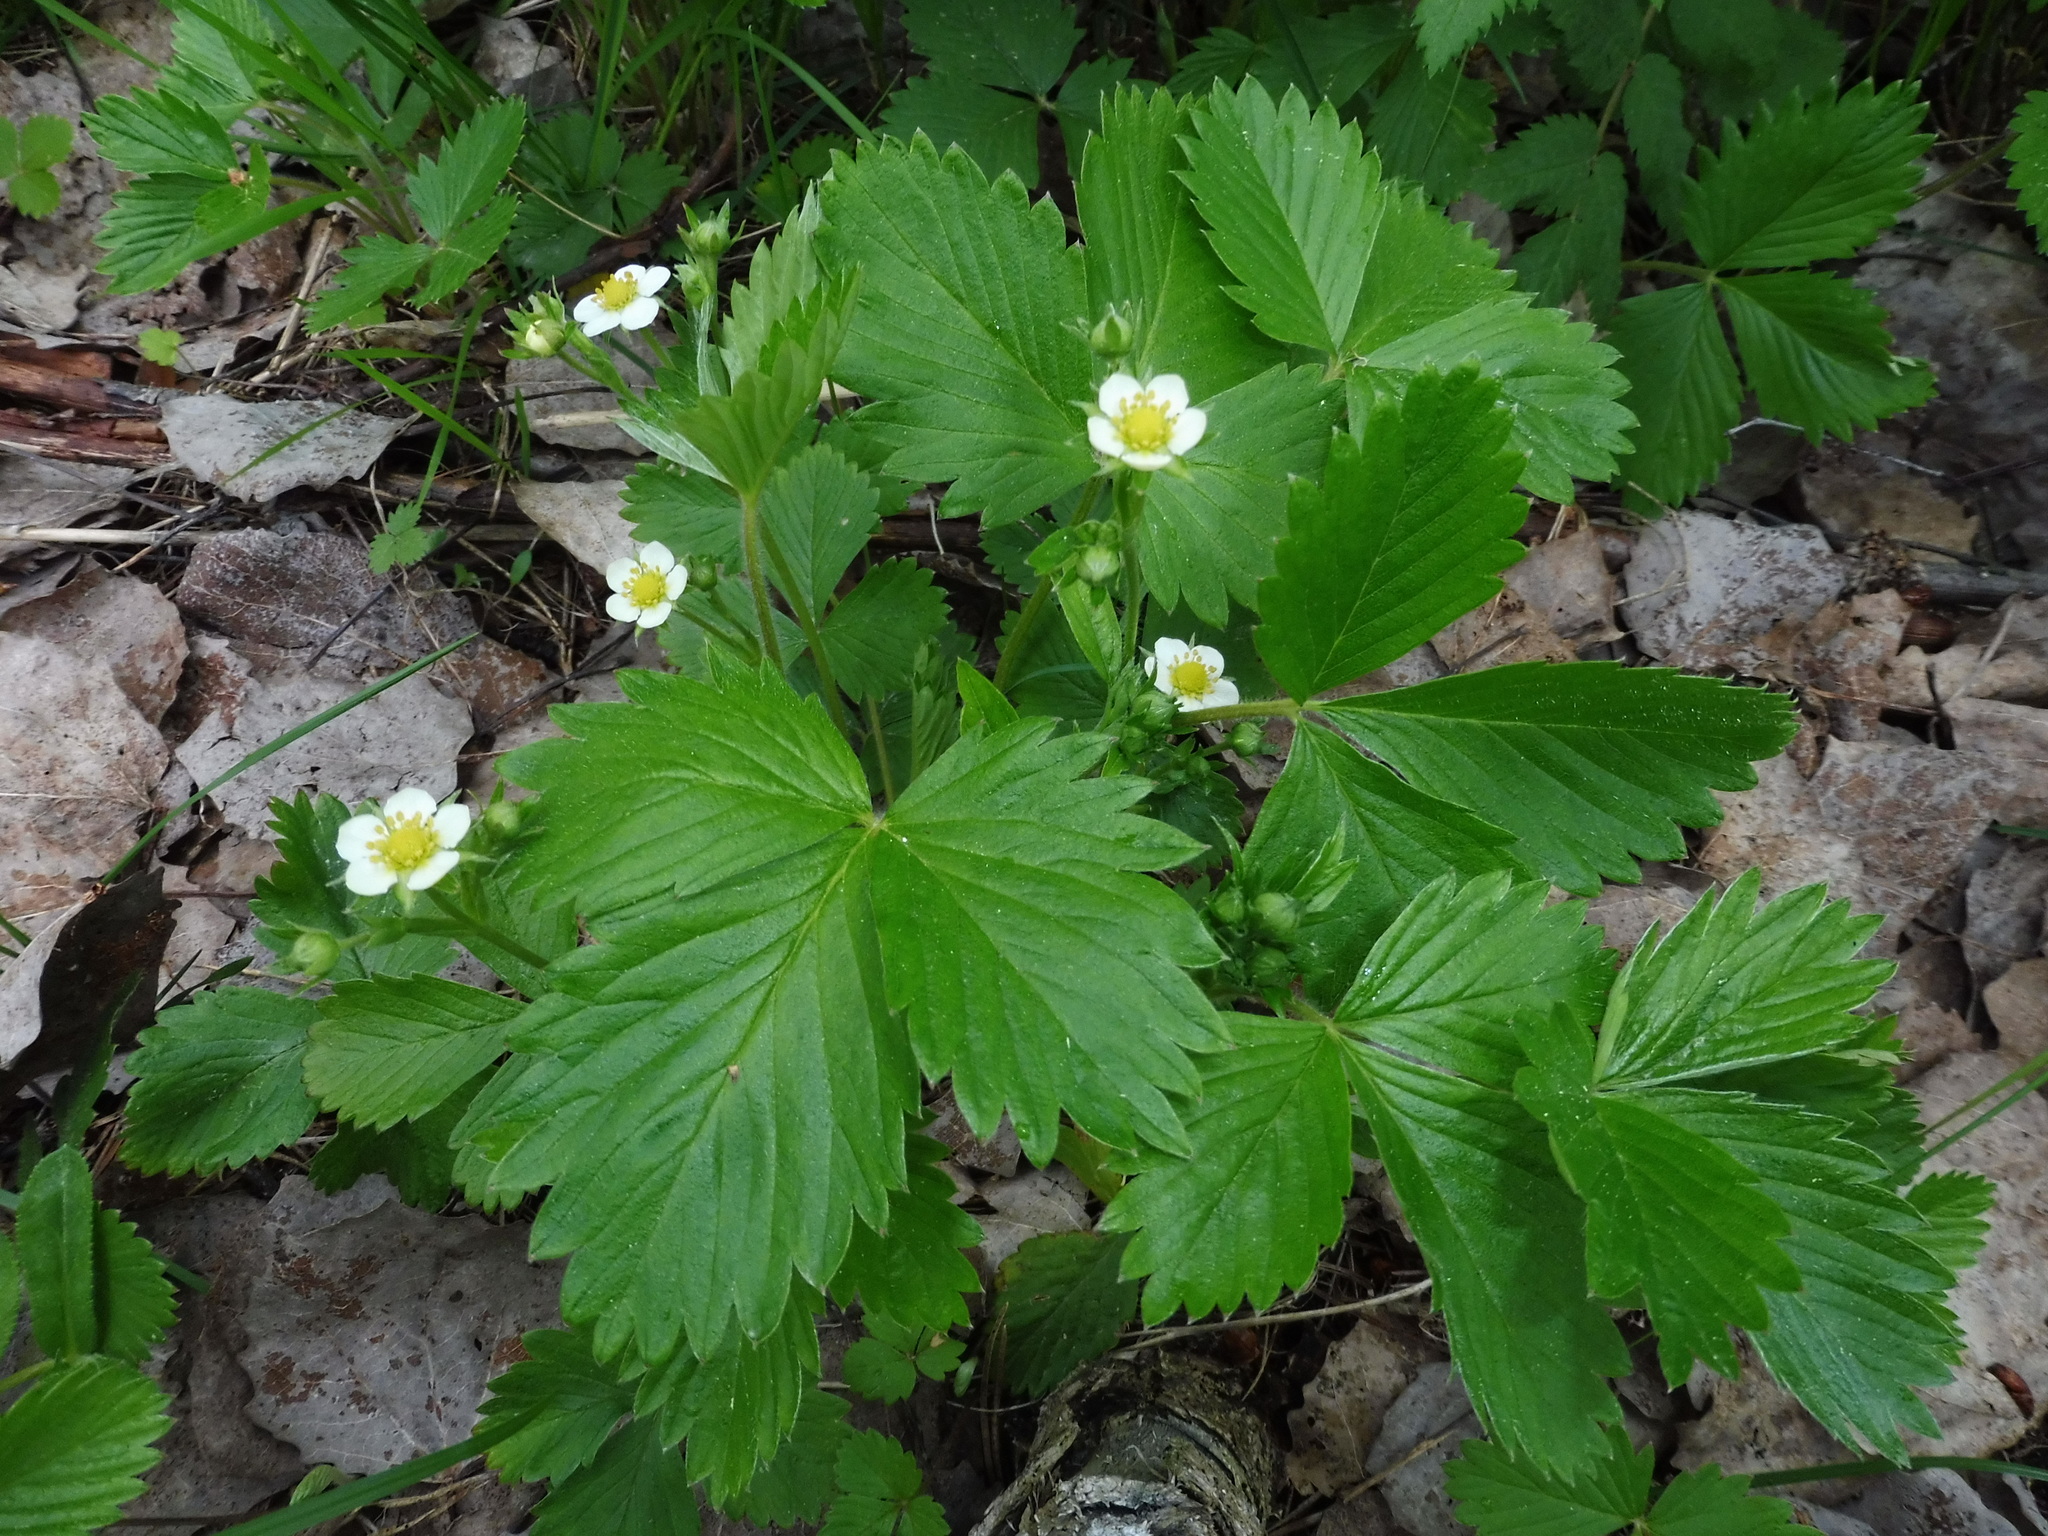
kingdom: Plantae
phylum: Tracheophyta
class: Magnoliopsida
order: Rosales
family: Rosaceae
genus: Fragaria
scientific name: Fragaria vesca
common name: Wild strawberry
